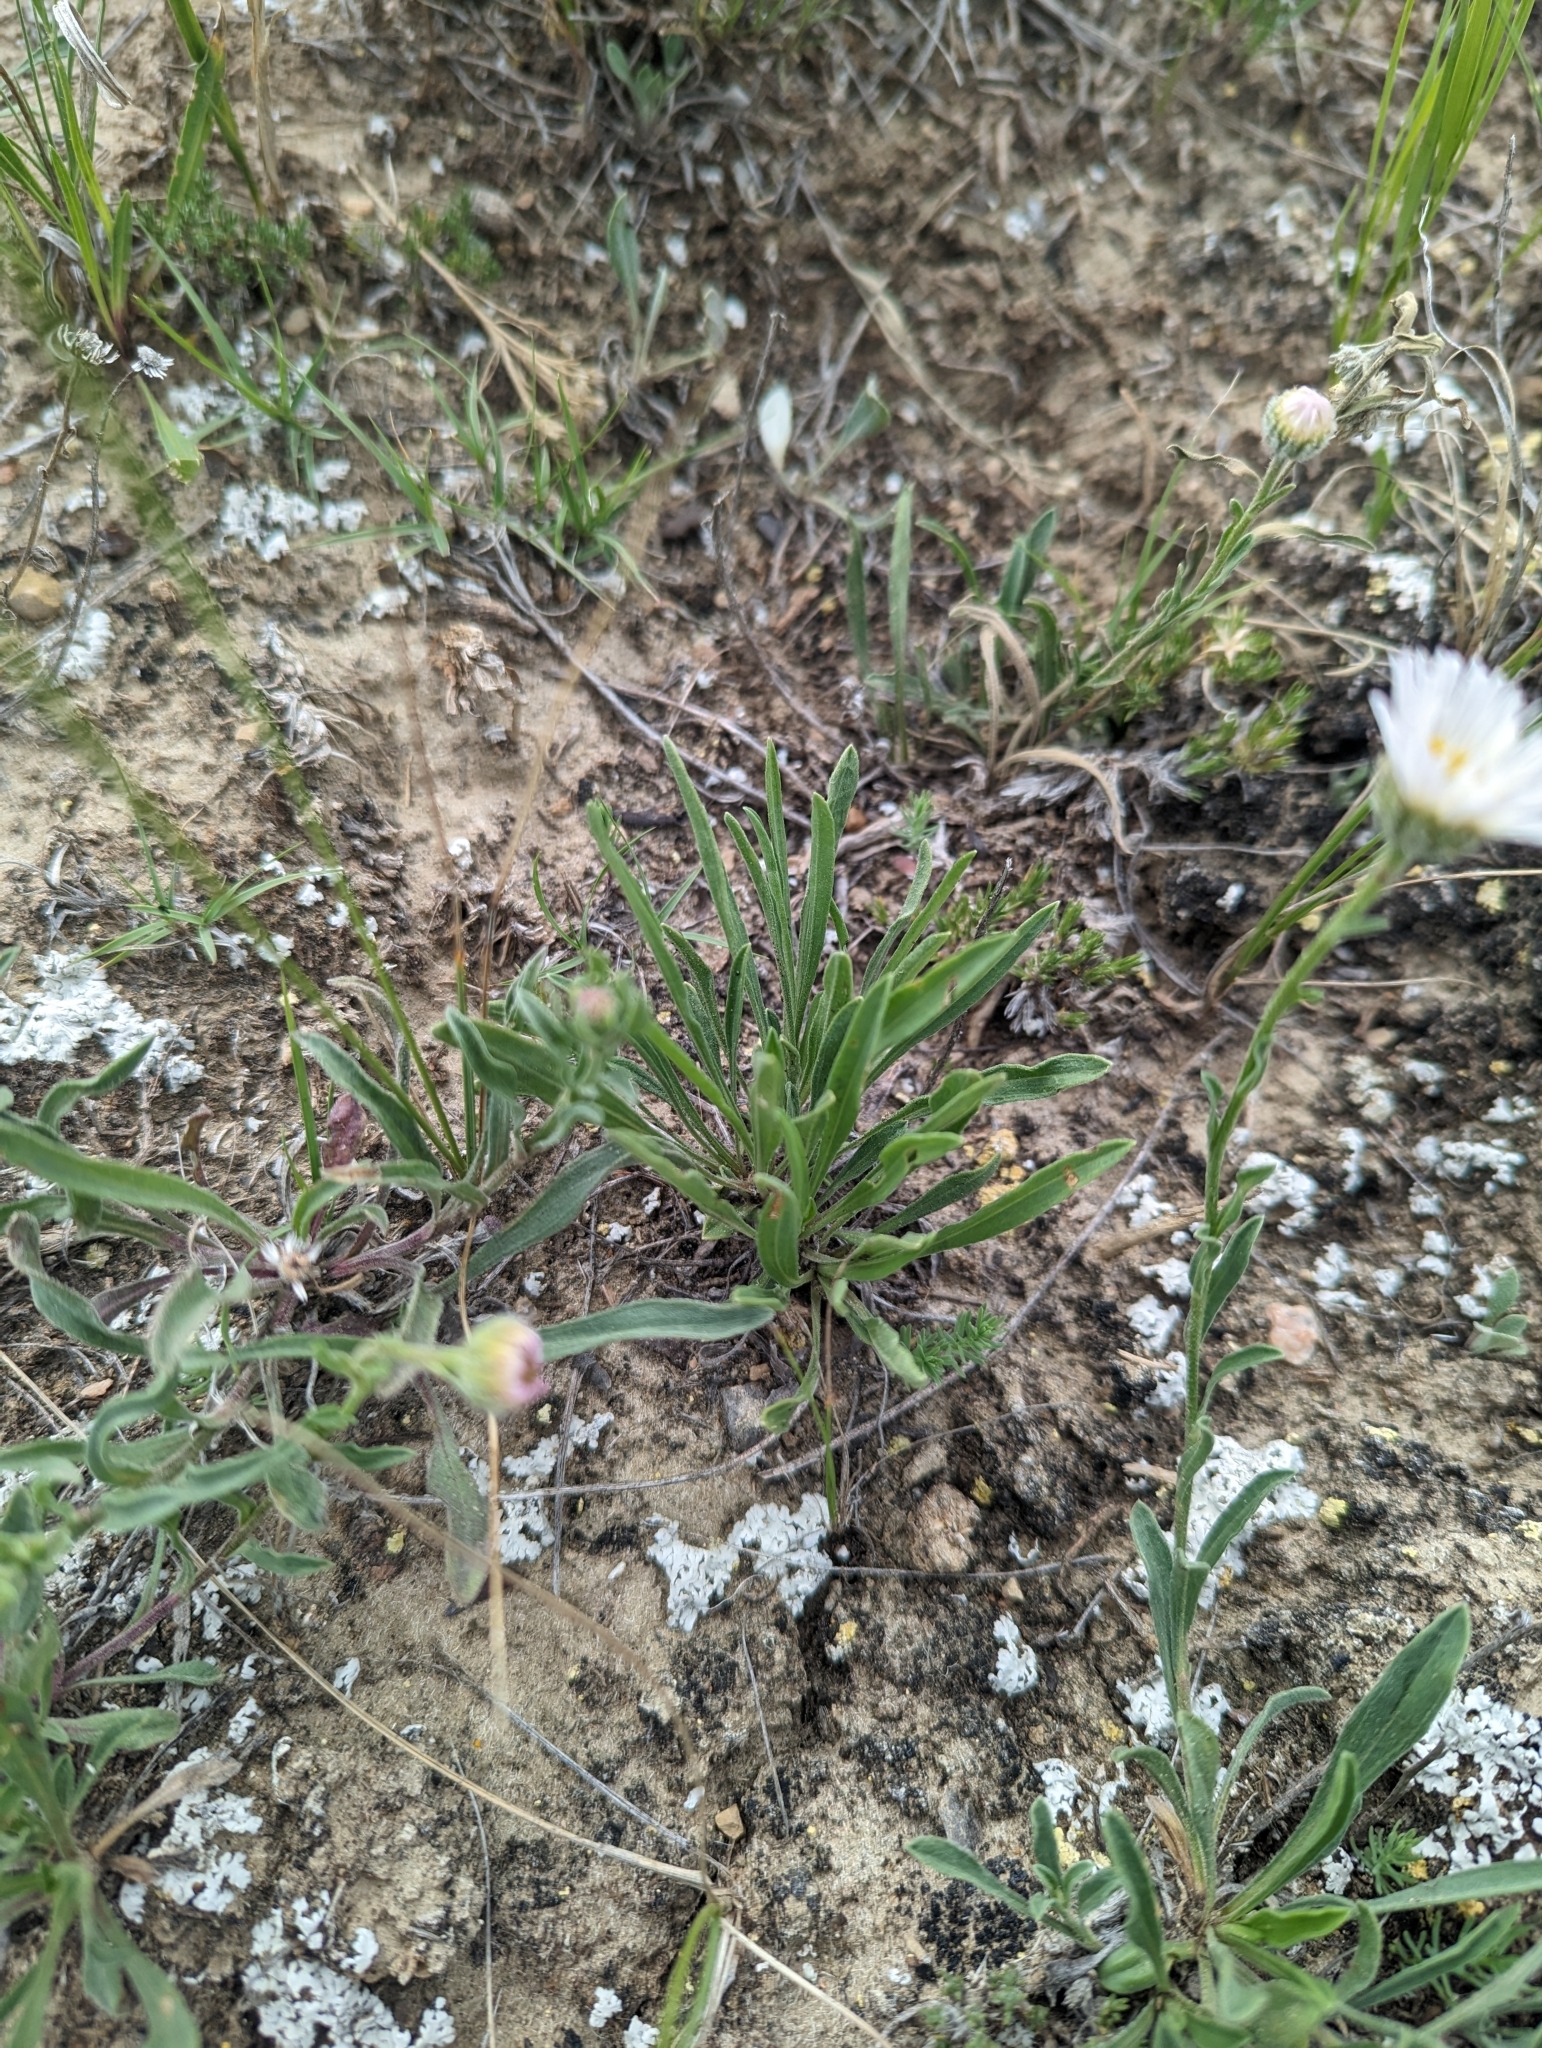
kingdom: Plantae
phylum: Tracheophyta
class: Magnoliopsida
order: Asterales
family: Asteraceae
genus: Erigeron
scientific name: Erigeron caespitosus
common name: Tufted fleabane
